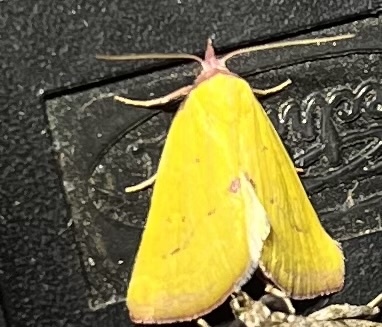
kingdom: Animalia
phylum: Arthropoda
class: Insecta
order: Lepidoptera
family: Erebidae
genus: Phytometra
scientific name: Phytometra orgiae
